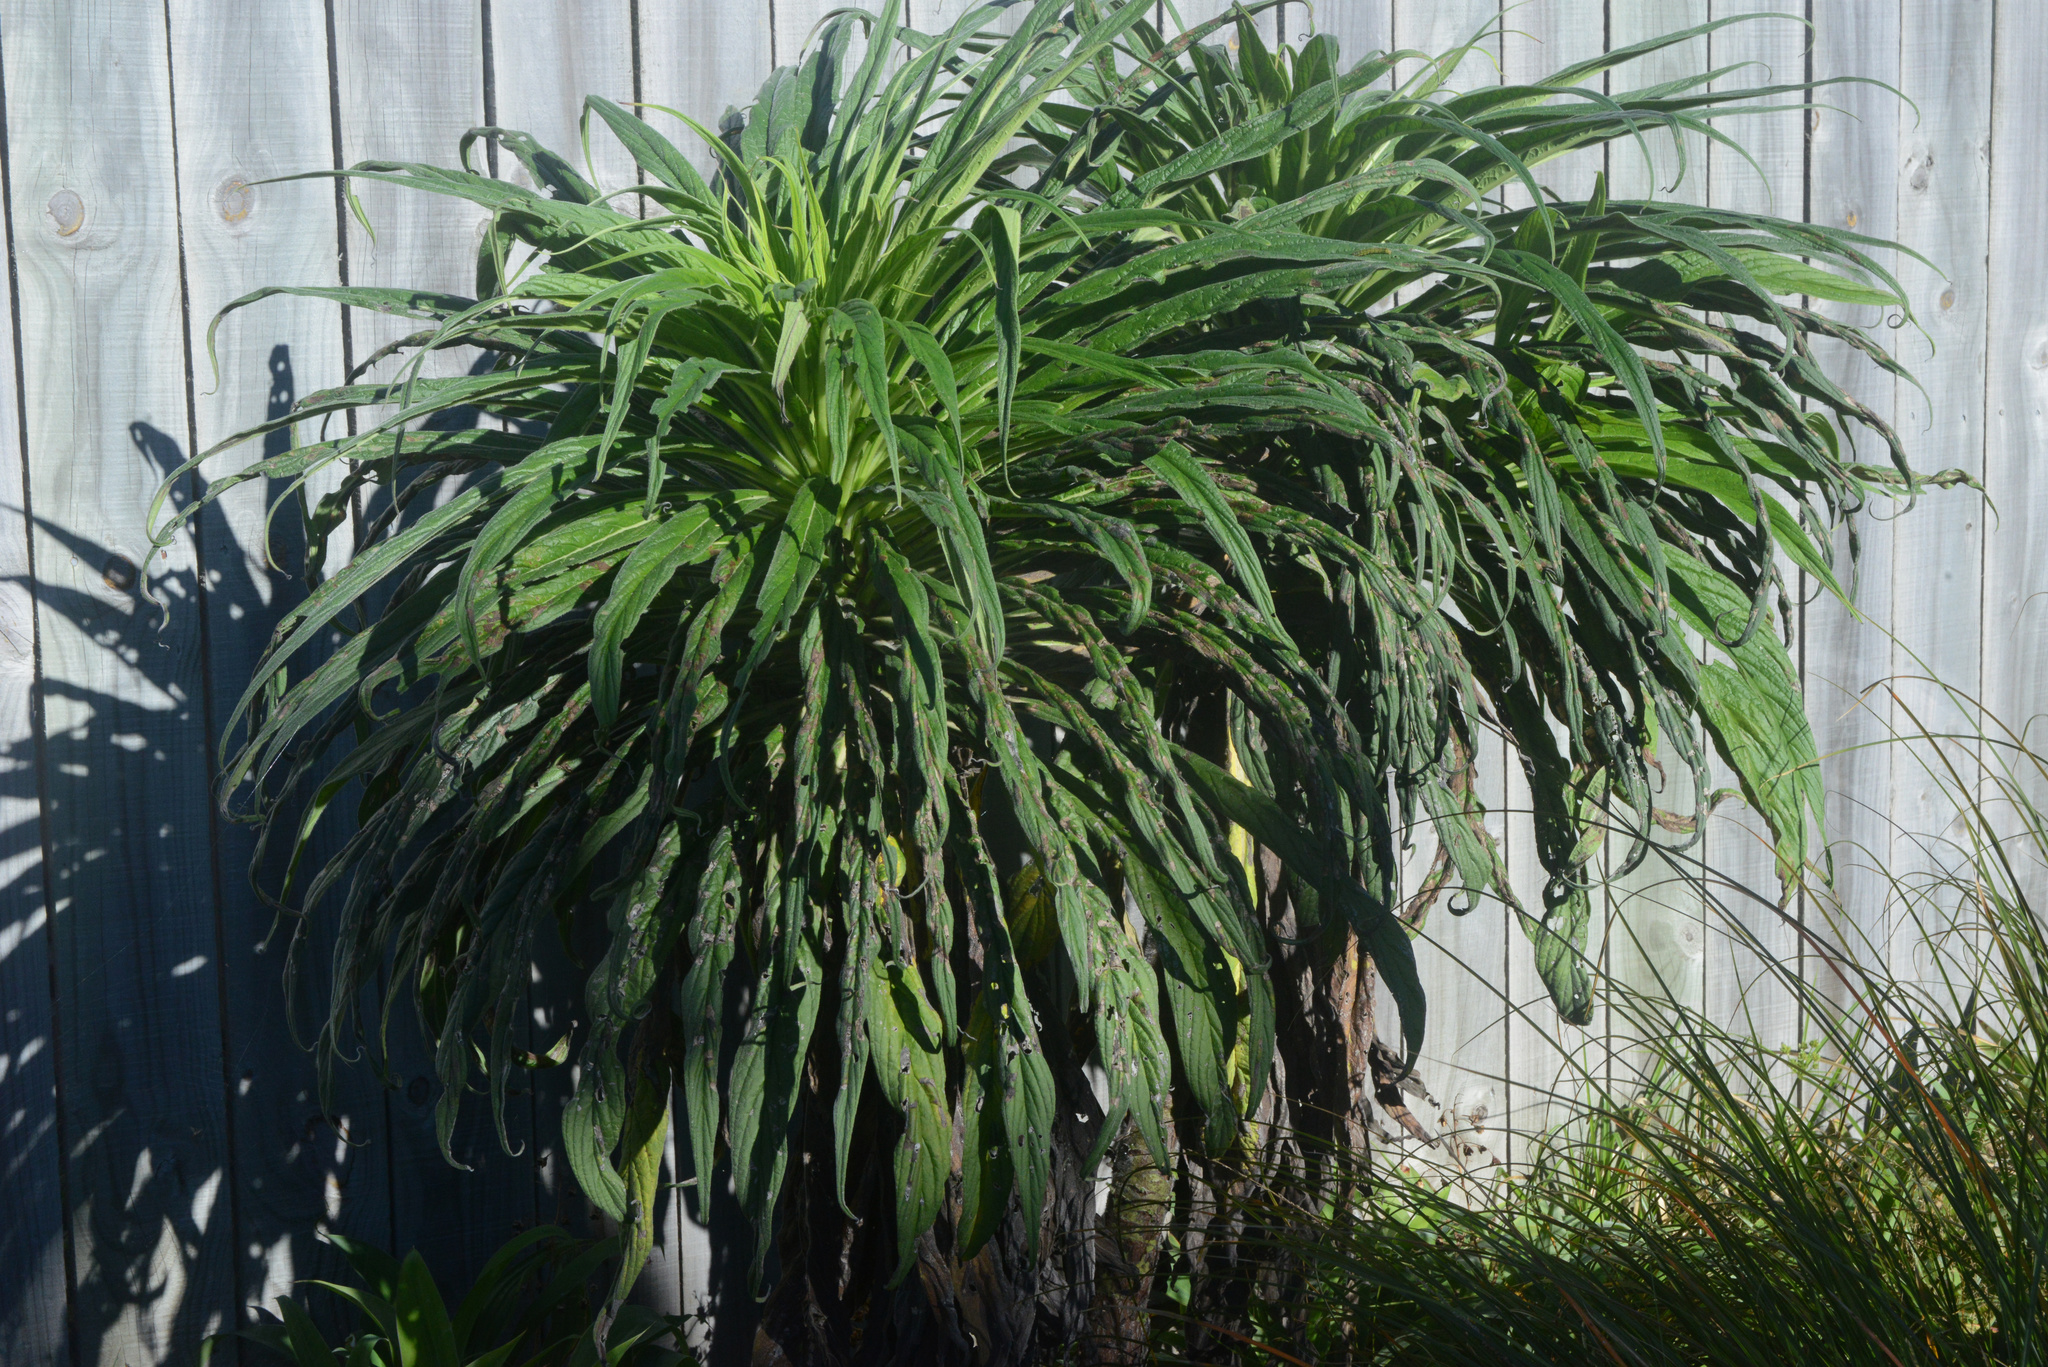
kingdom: Plantae
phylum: Tracheophyta
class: Magnoliopsida
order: Boraginales
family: Boraginaceae
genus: Echium
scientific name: Echium pininana
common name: Giant viper's-bugloss
